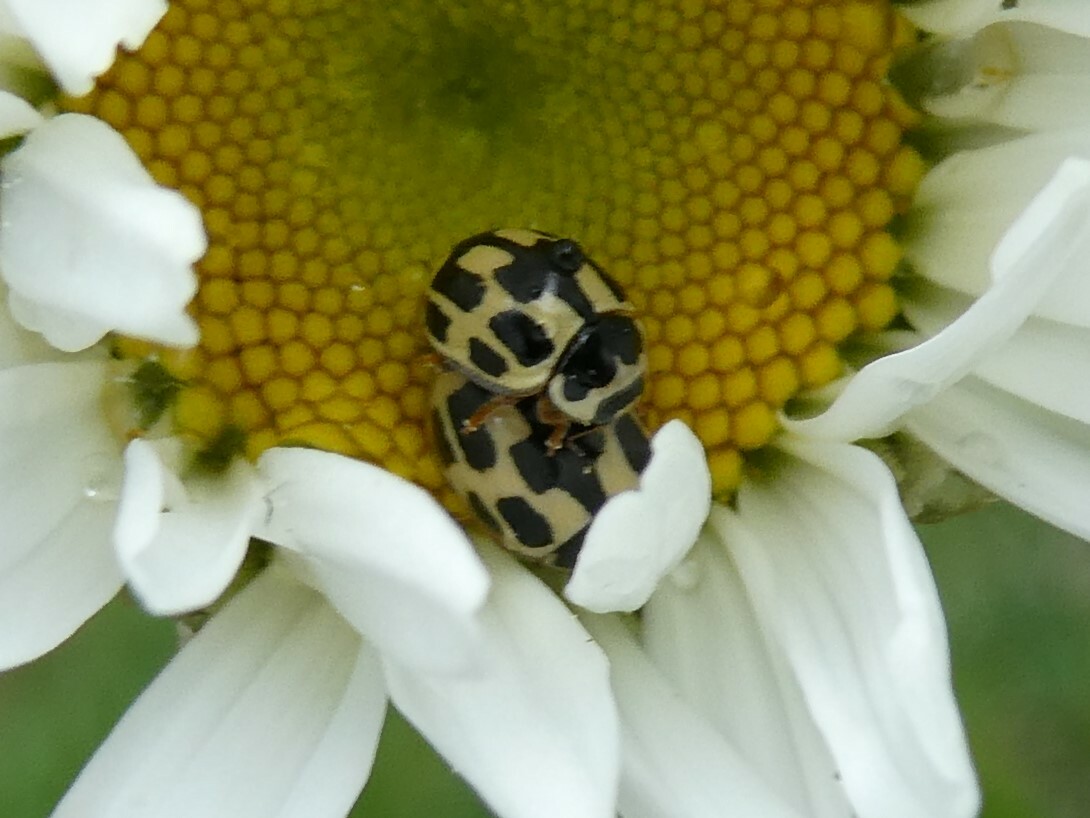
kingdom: Animalia
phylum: Arthropoda
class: Insecta
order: Coleoptera
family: Coccinellidae
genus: Propylaea
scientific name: Propylaea quatuordecimpunctata
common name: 14-spotted ladybird beetle
